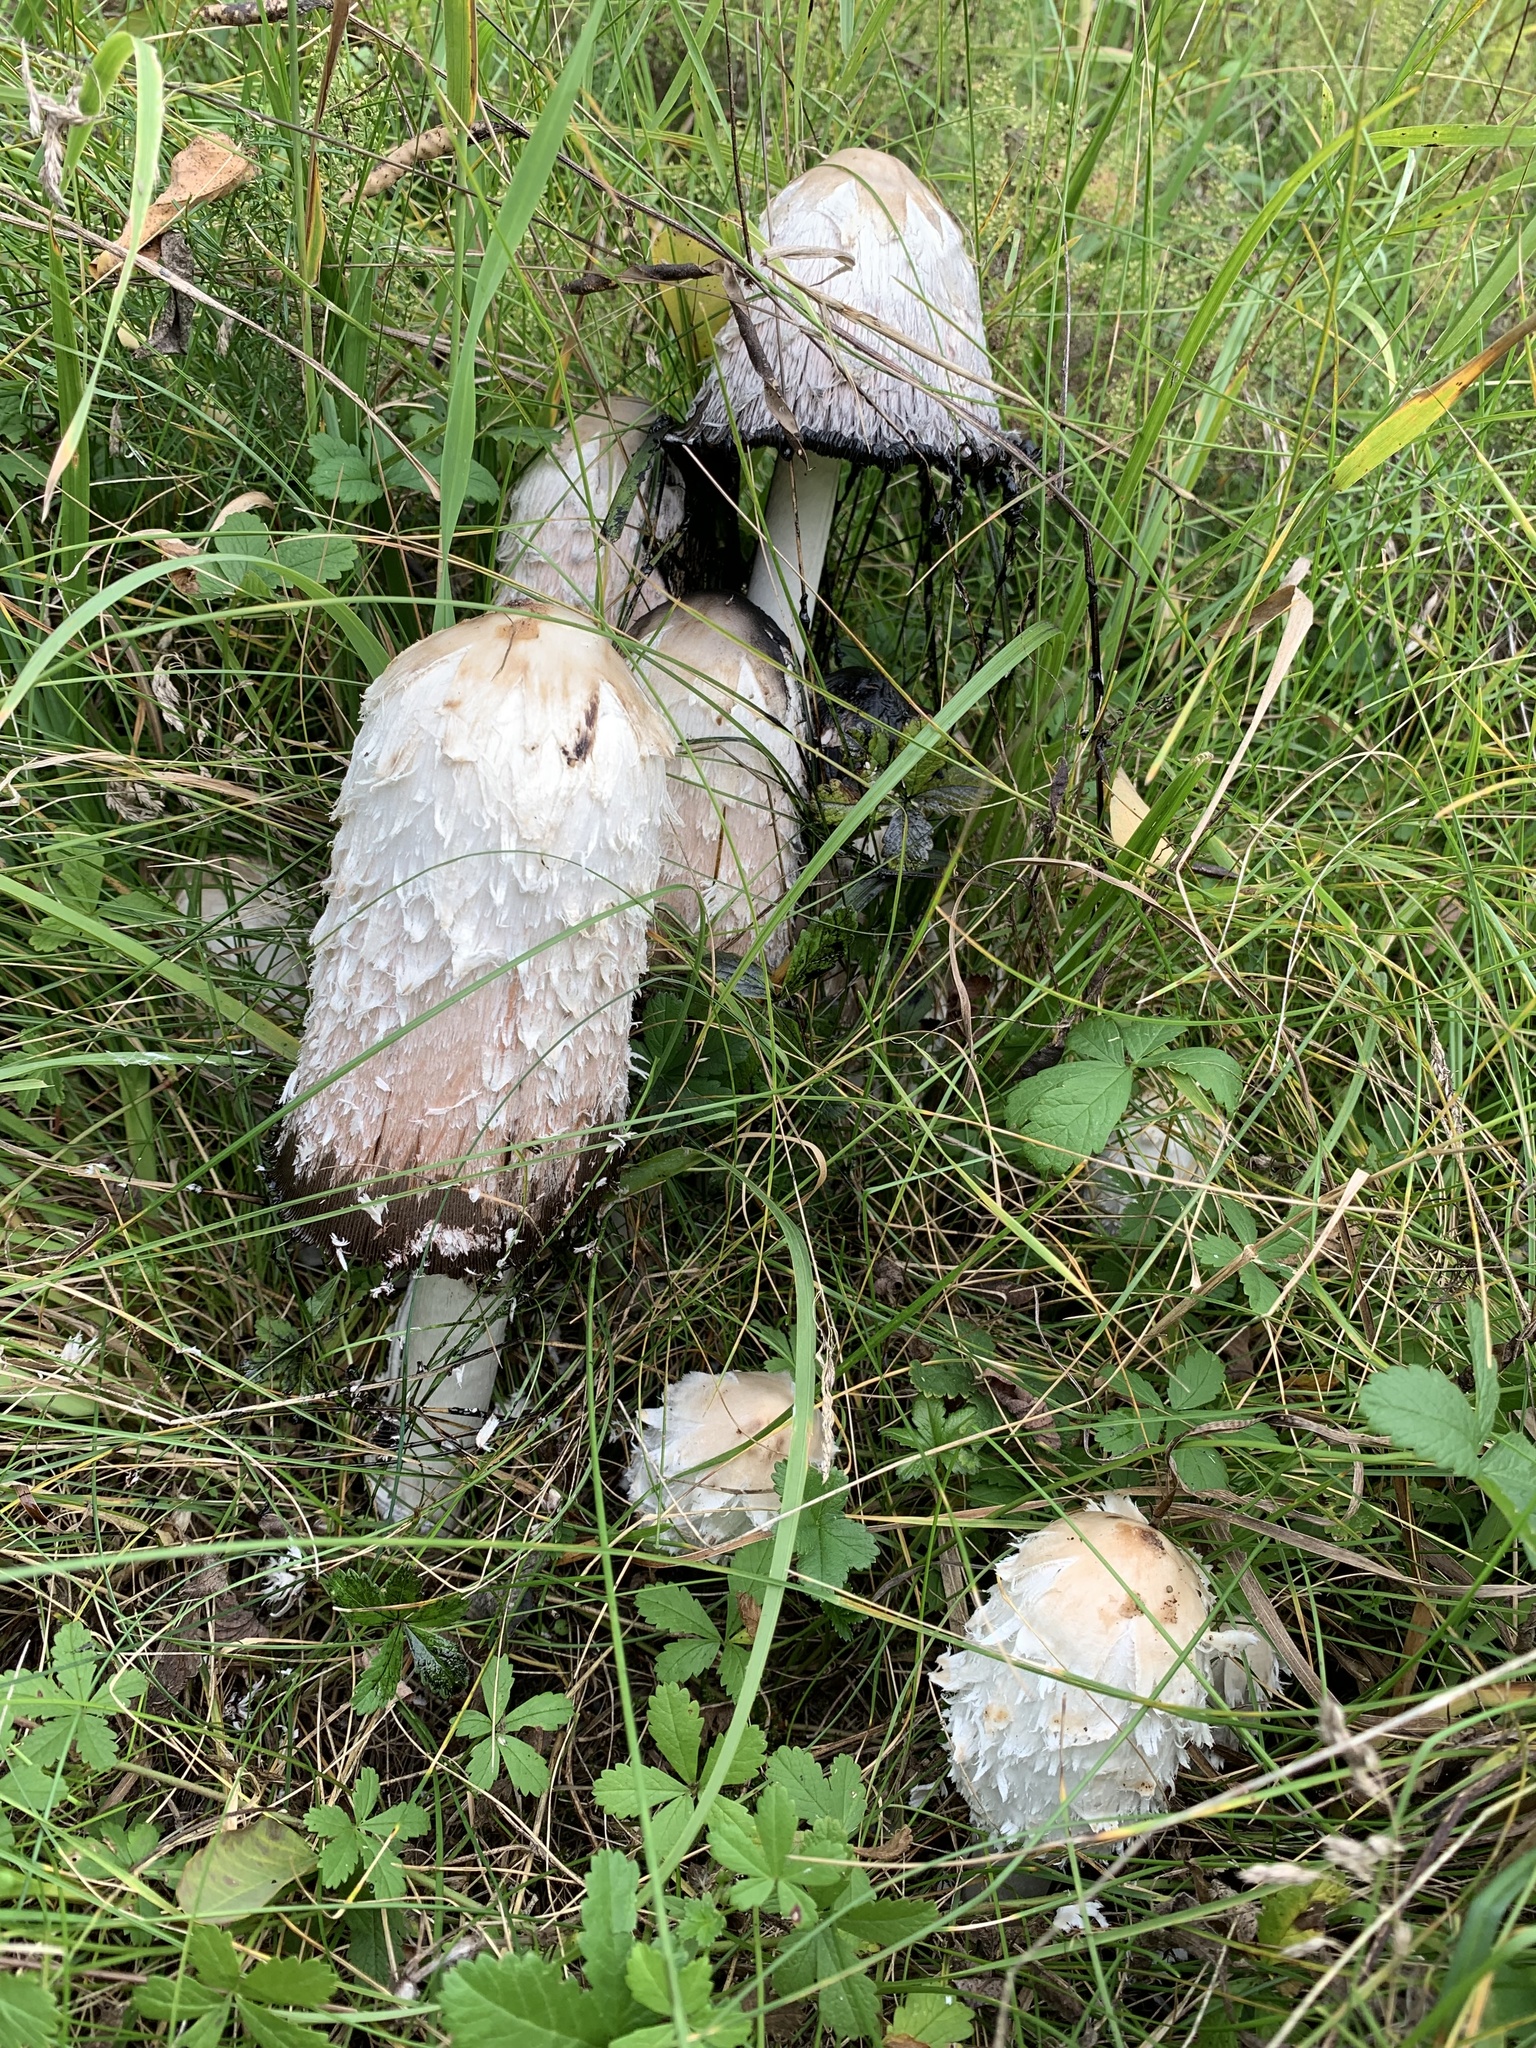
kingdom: Fungi
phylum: Basidiomycota
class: Agaricomycetes
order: Agaricales
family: Agaricaceae
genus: Coprinus
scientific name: Coprinus comatus
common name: Lawyer's wig
